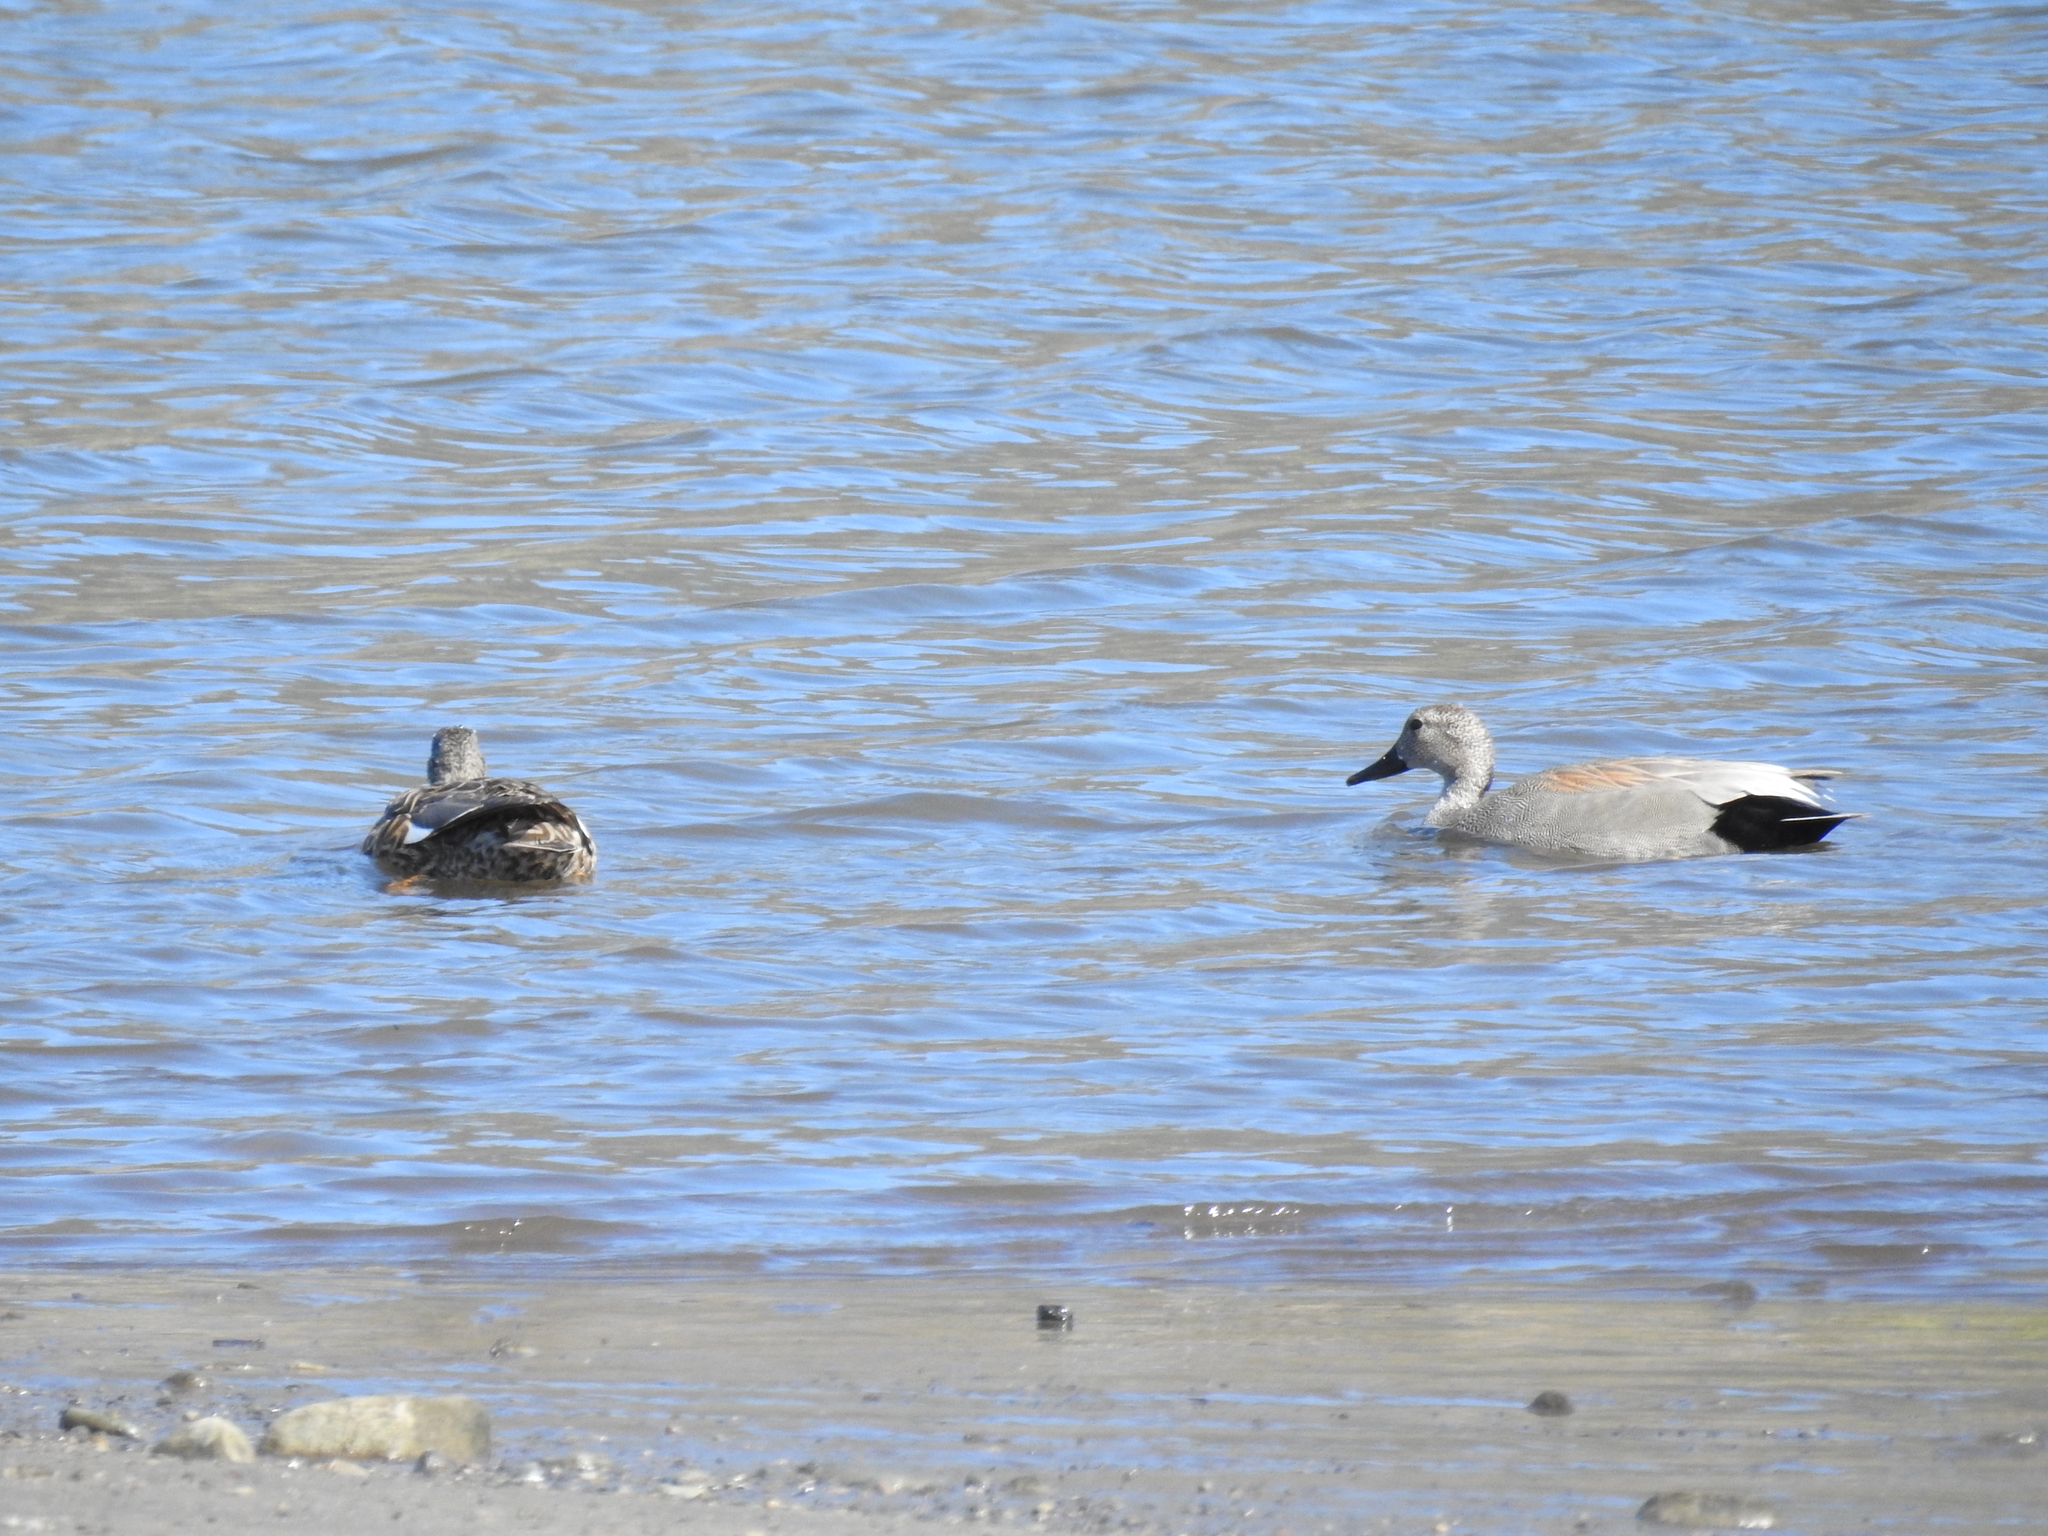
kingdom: Animalia
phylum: Chordata
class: Aves
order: Anseriformes
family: Anatidae
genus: Mareca
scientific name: Mareca strepera
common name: Gadwall
